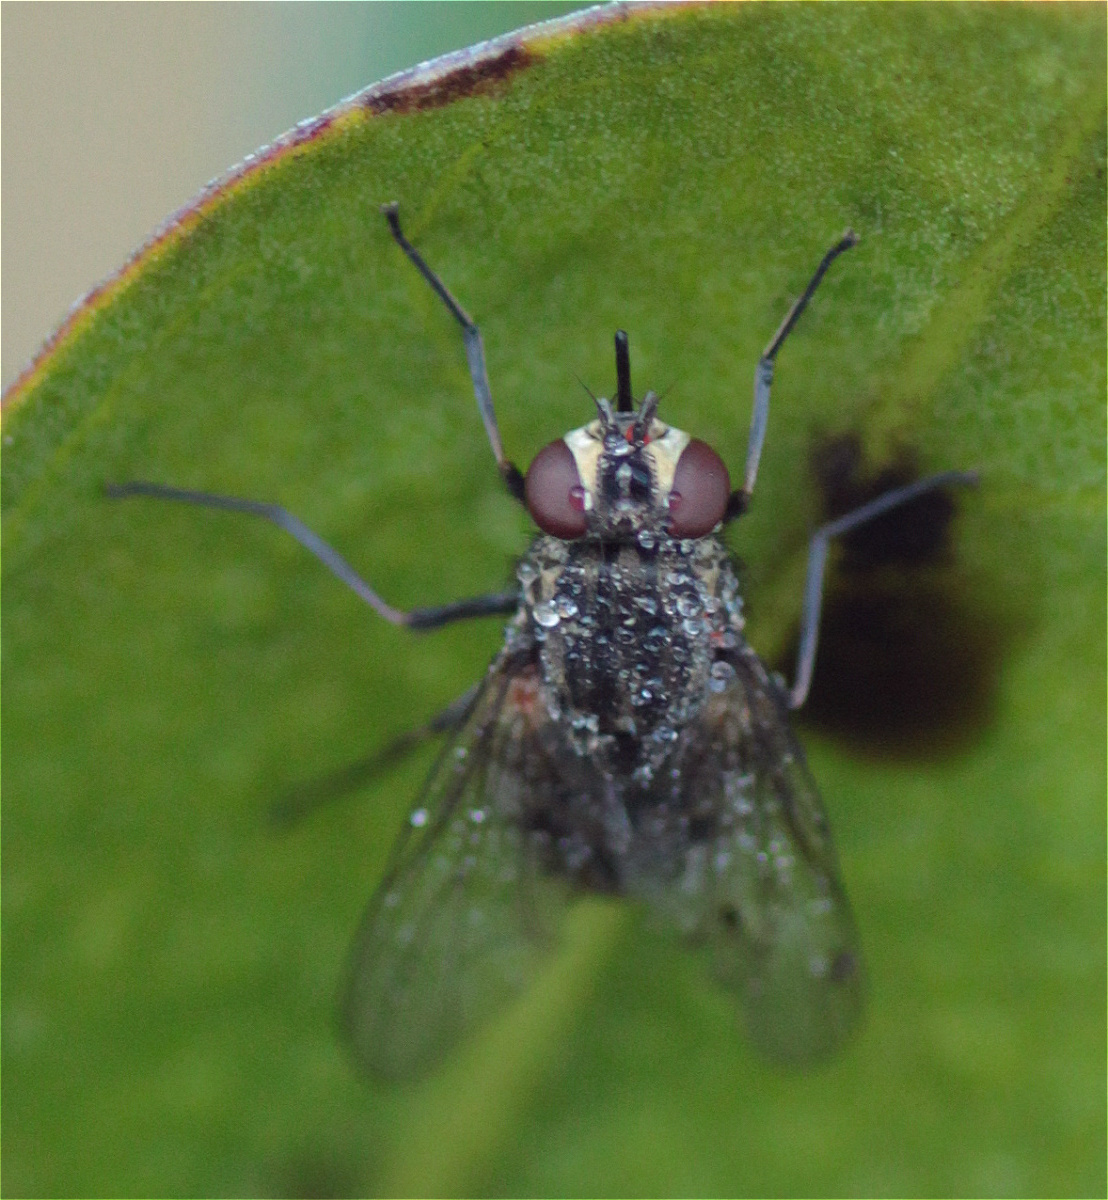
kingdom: Animalia
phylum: Arthropoda
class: Insecta
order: Diptera
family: Muscidae
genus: Stomoxys
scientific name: Stomoxys calcitrans
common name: Stable fly
